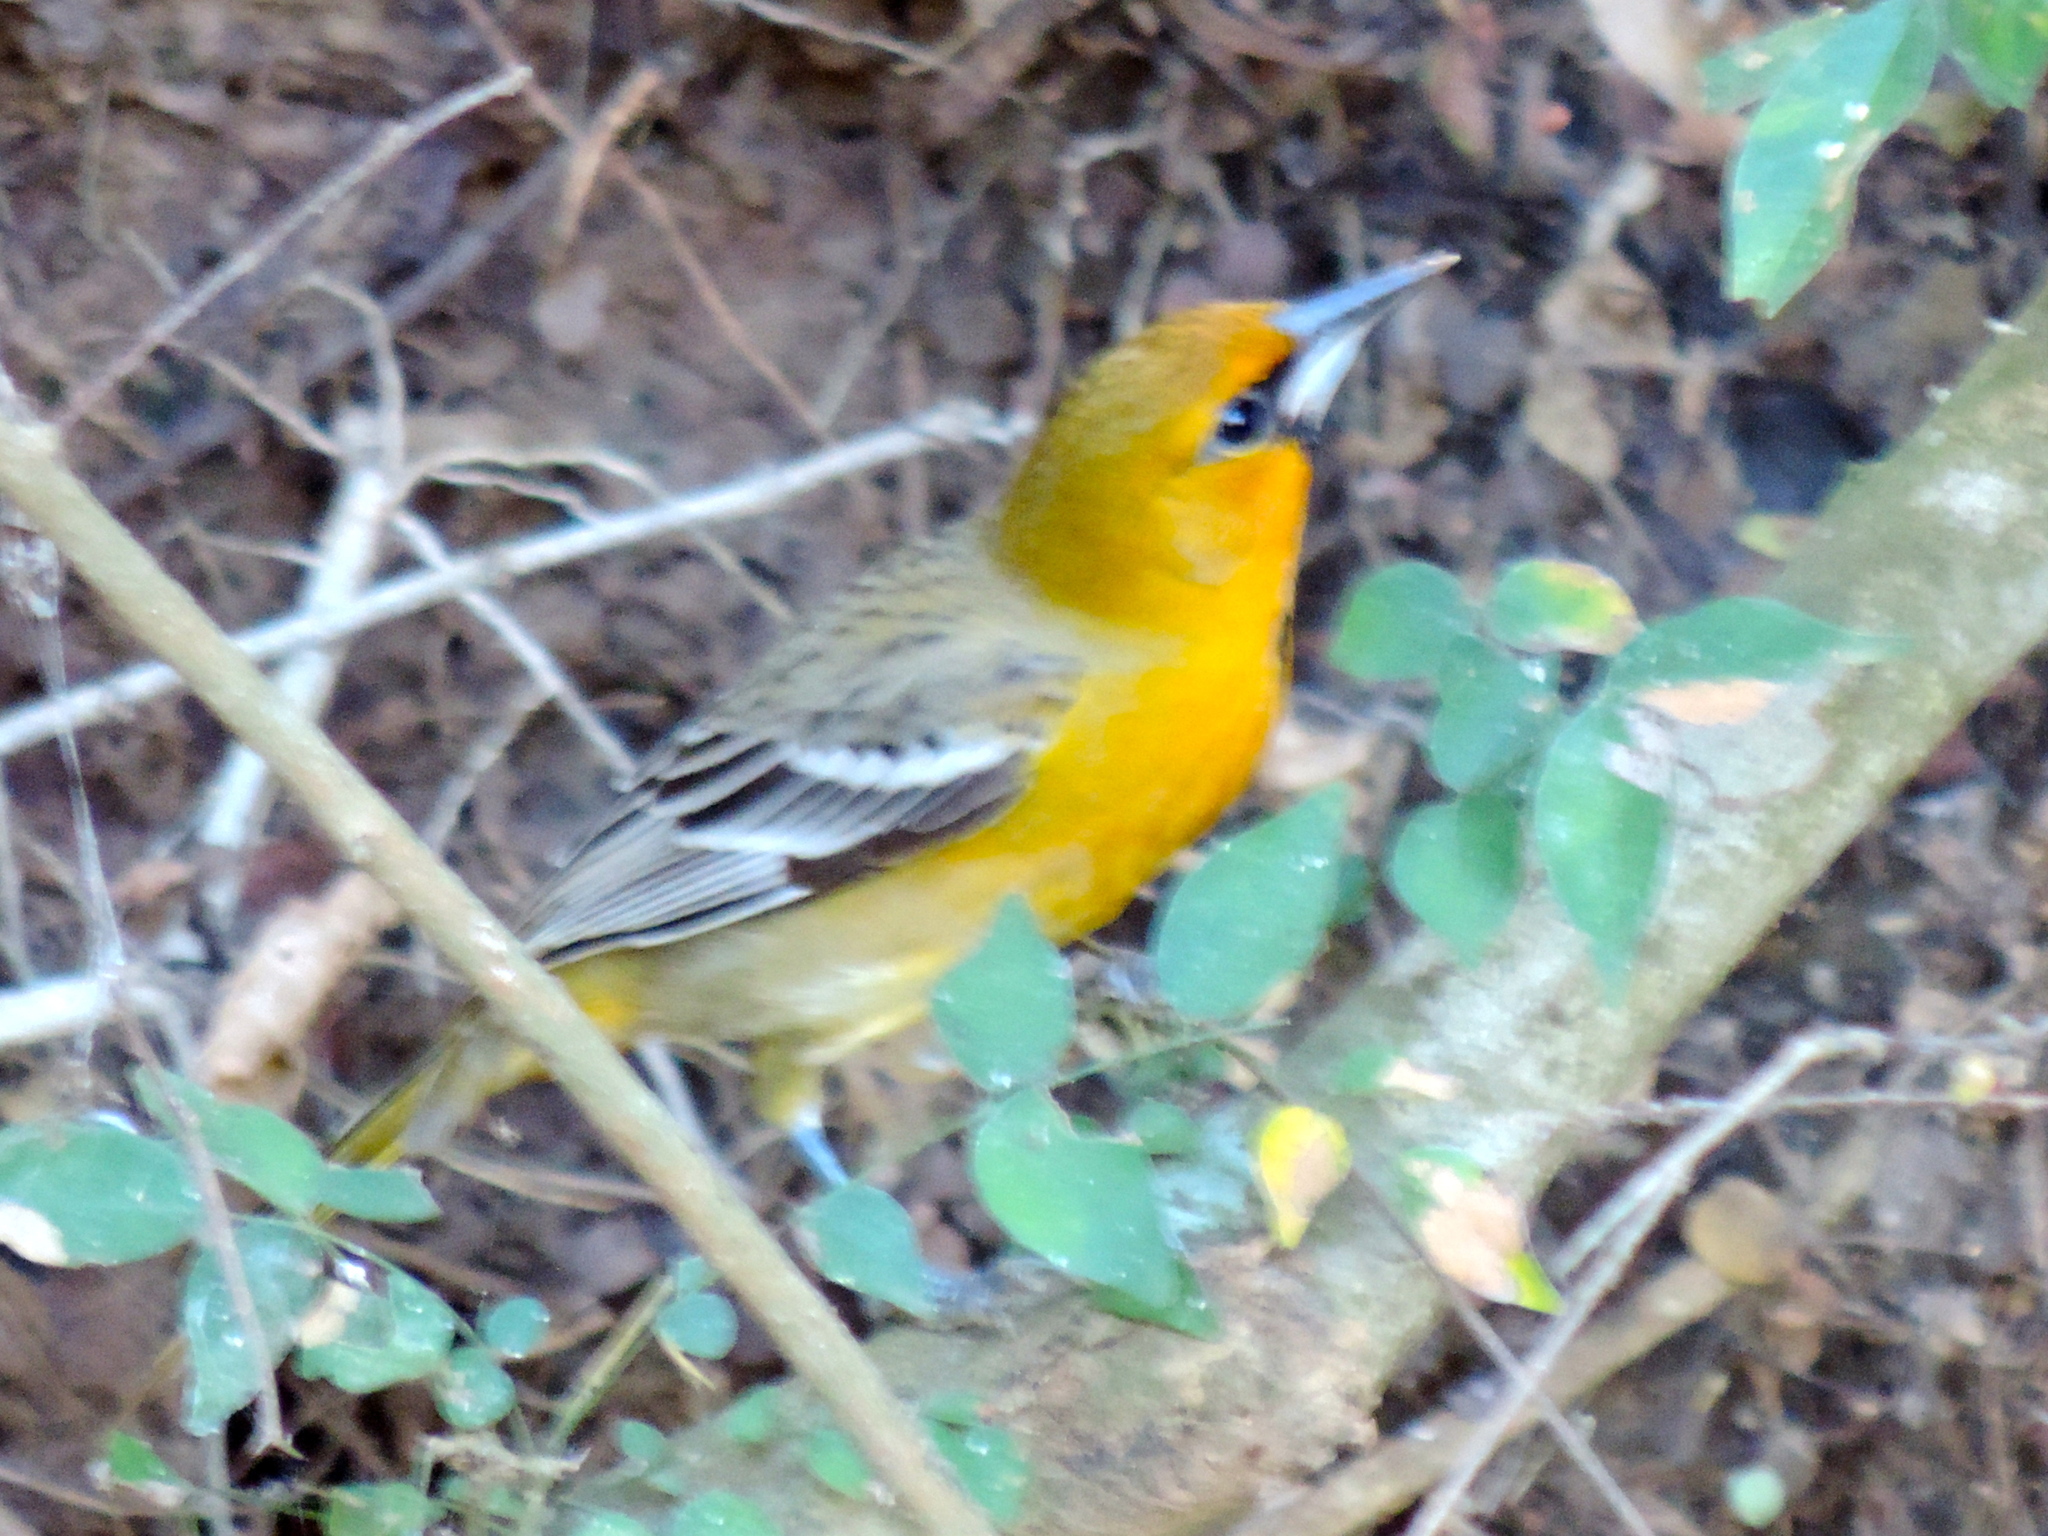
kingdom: Animalia
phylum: Chordata
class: Aves
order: Passeriformes
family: Icteridae
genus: Icterus
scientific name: Icterus pustulatus
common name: Streak-backed oriole
